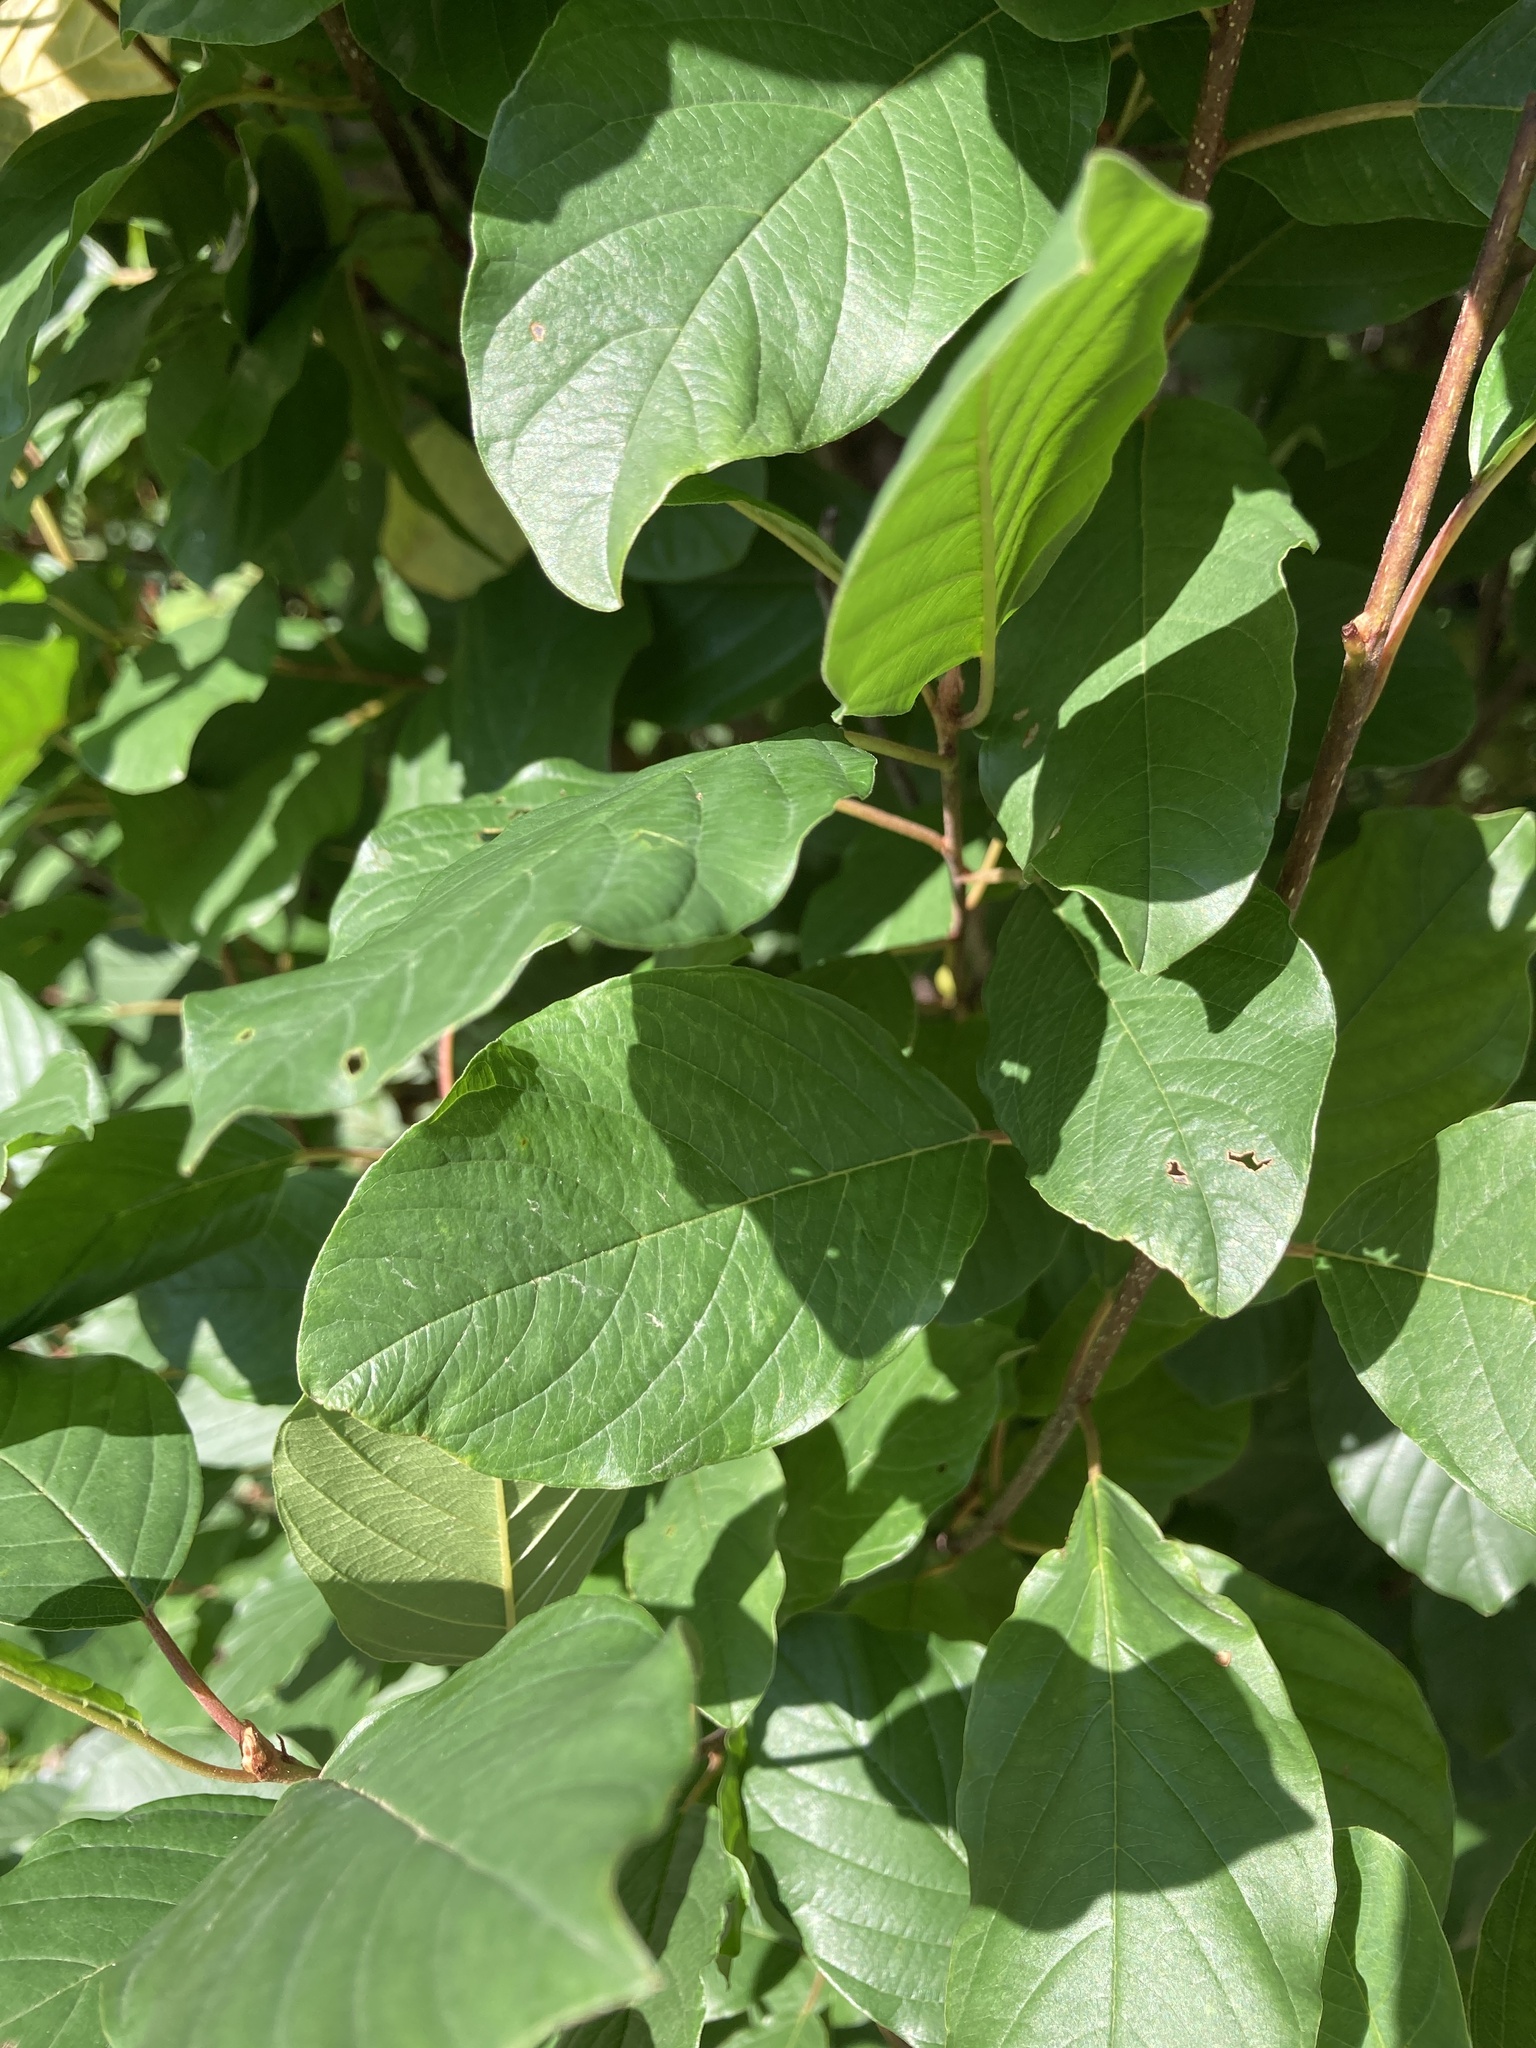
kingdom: Plantae
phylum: Tracheophyta
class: Magnoliopsida
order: Rosales
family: Rhamnaceae
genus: Frangula
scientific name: Frangula alnus
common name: Alder buckthorn
